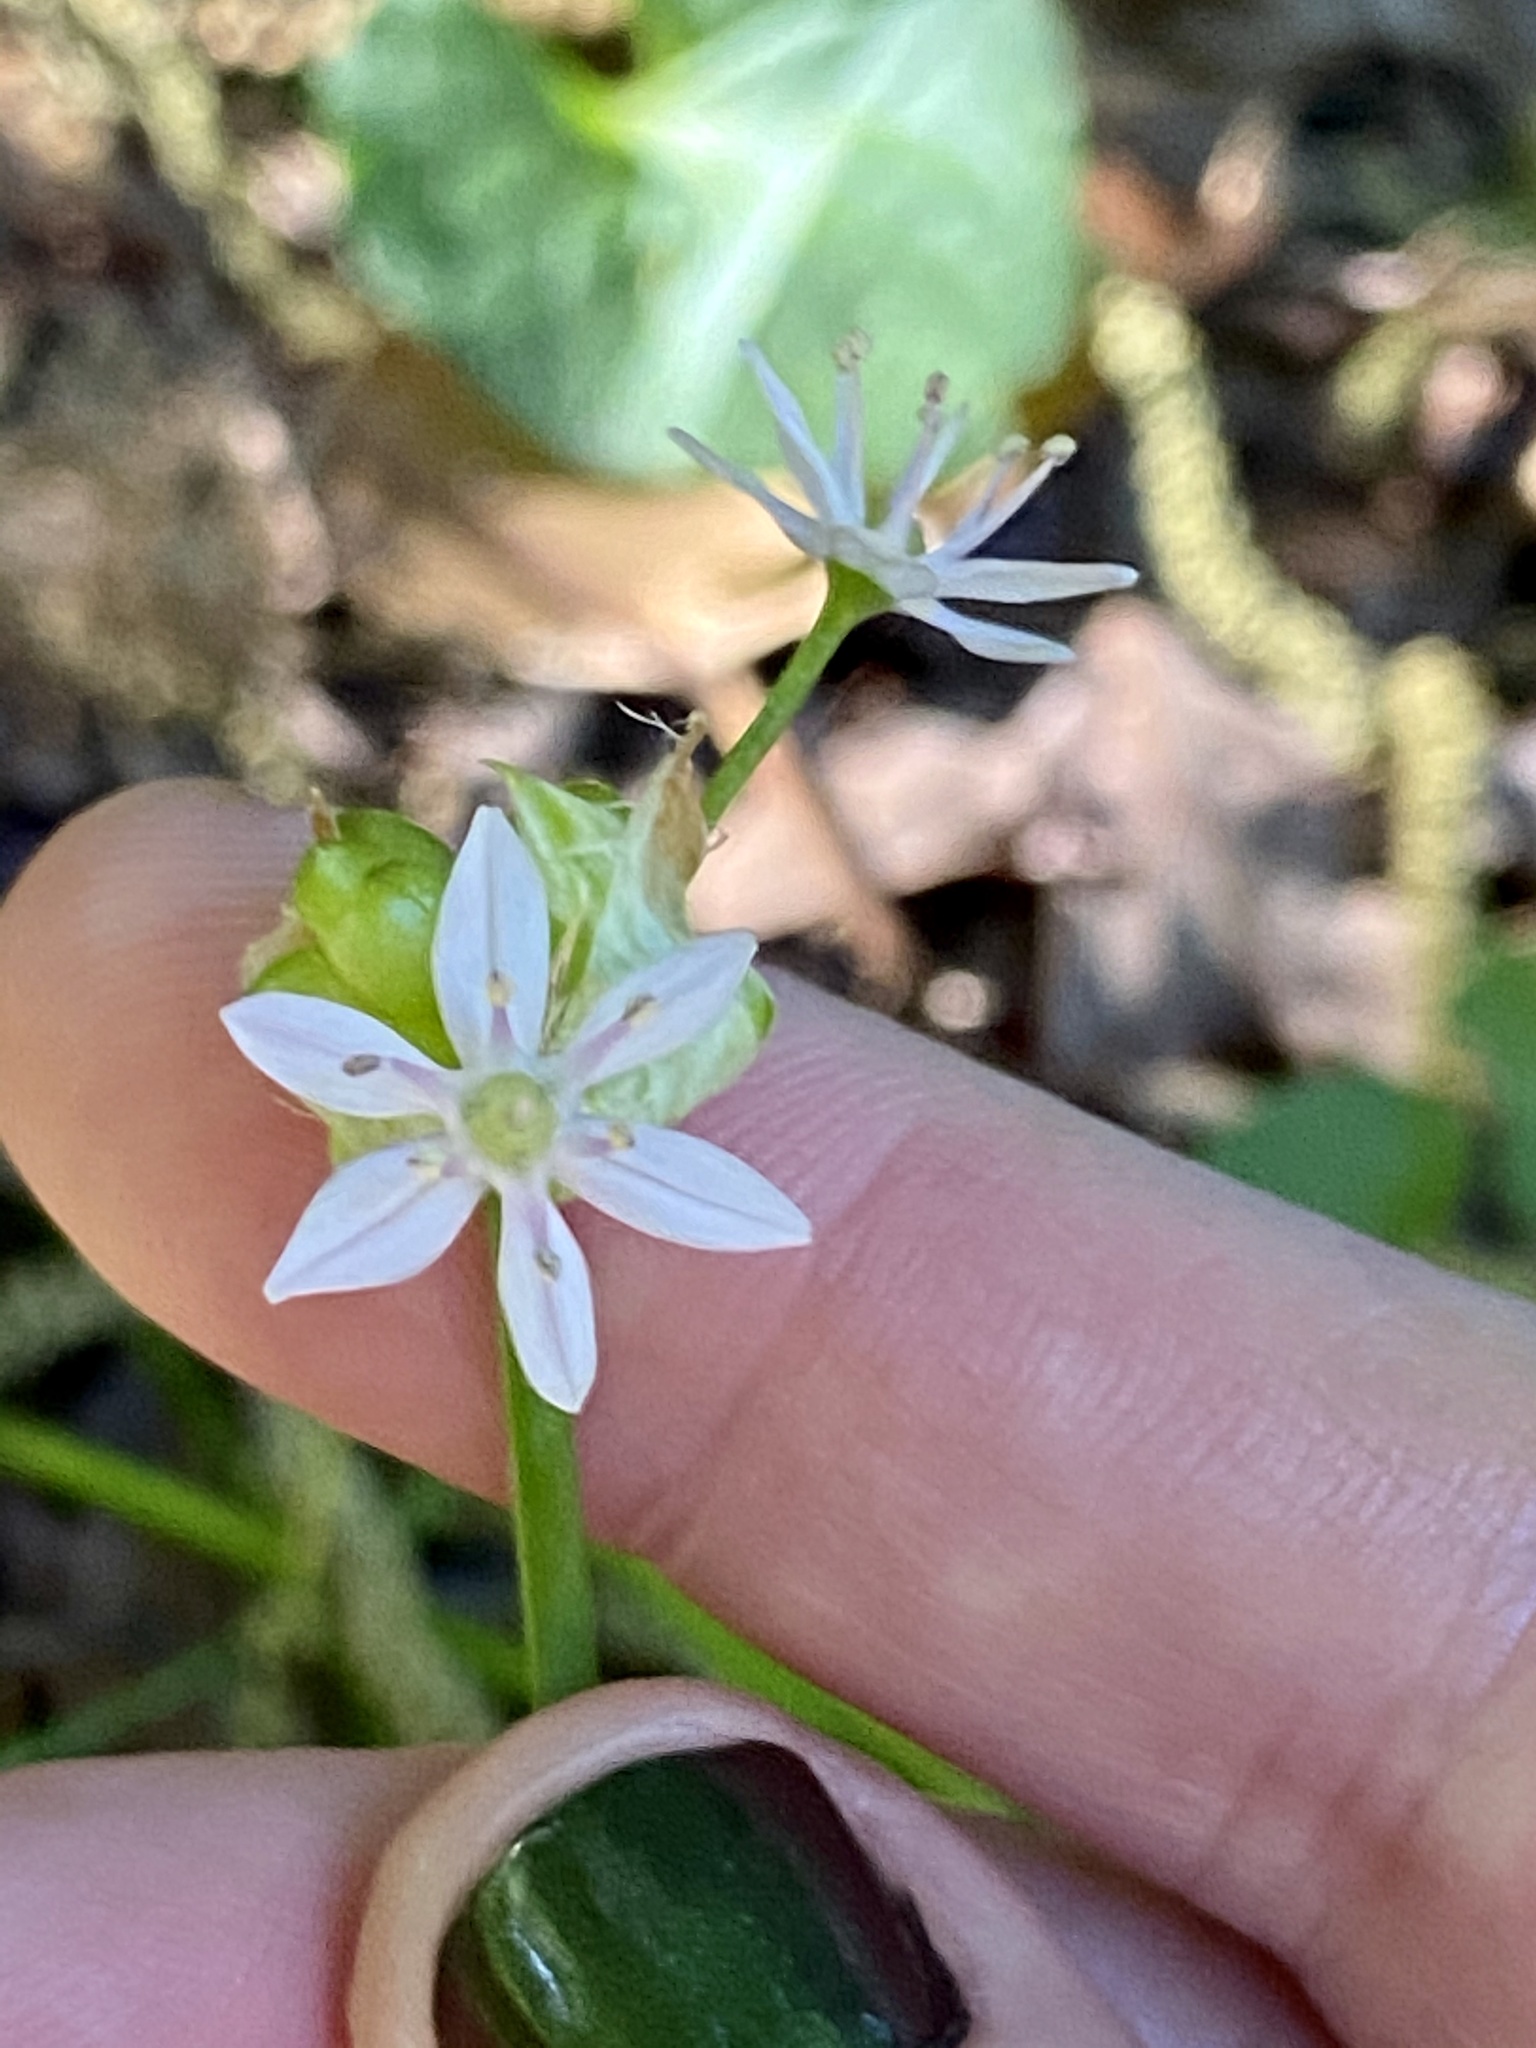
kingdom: Plantae
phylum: Tracheophyta
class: Liliopsida
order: Asparagales
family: Amaryllidaceae
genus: Allium
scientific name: Allium canadense
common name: Meadow garlic
